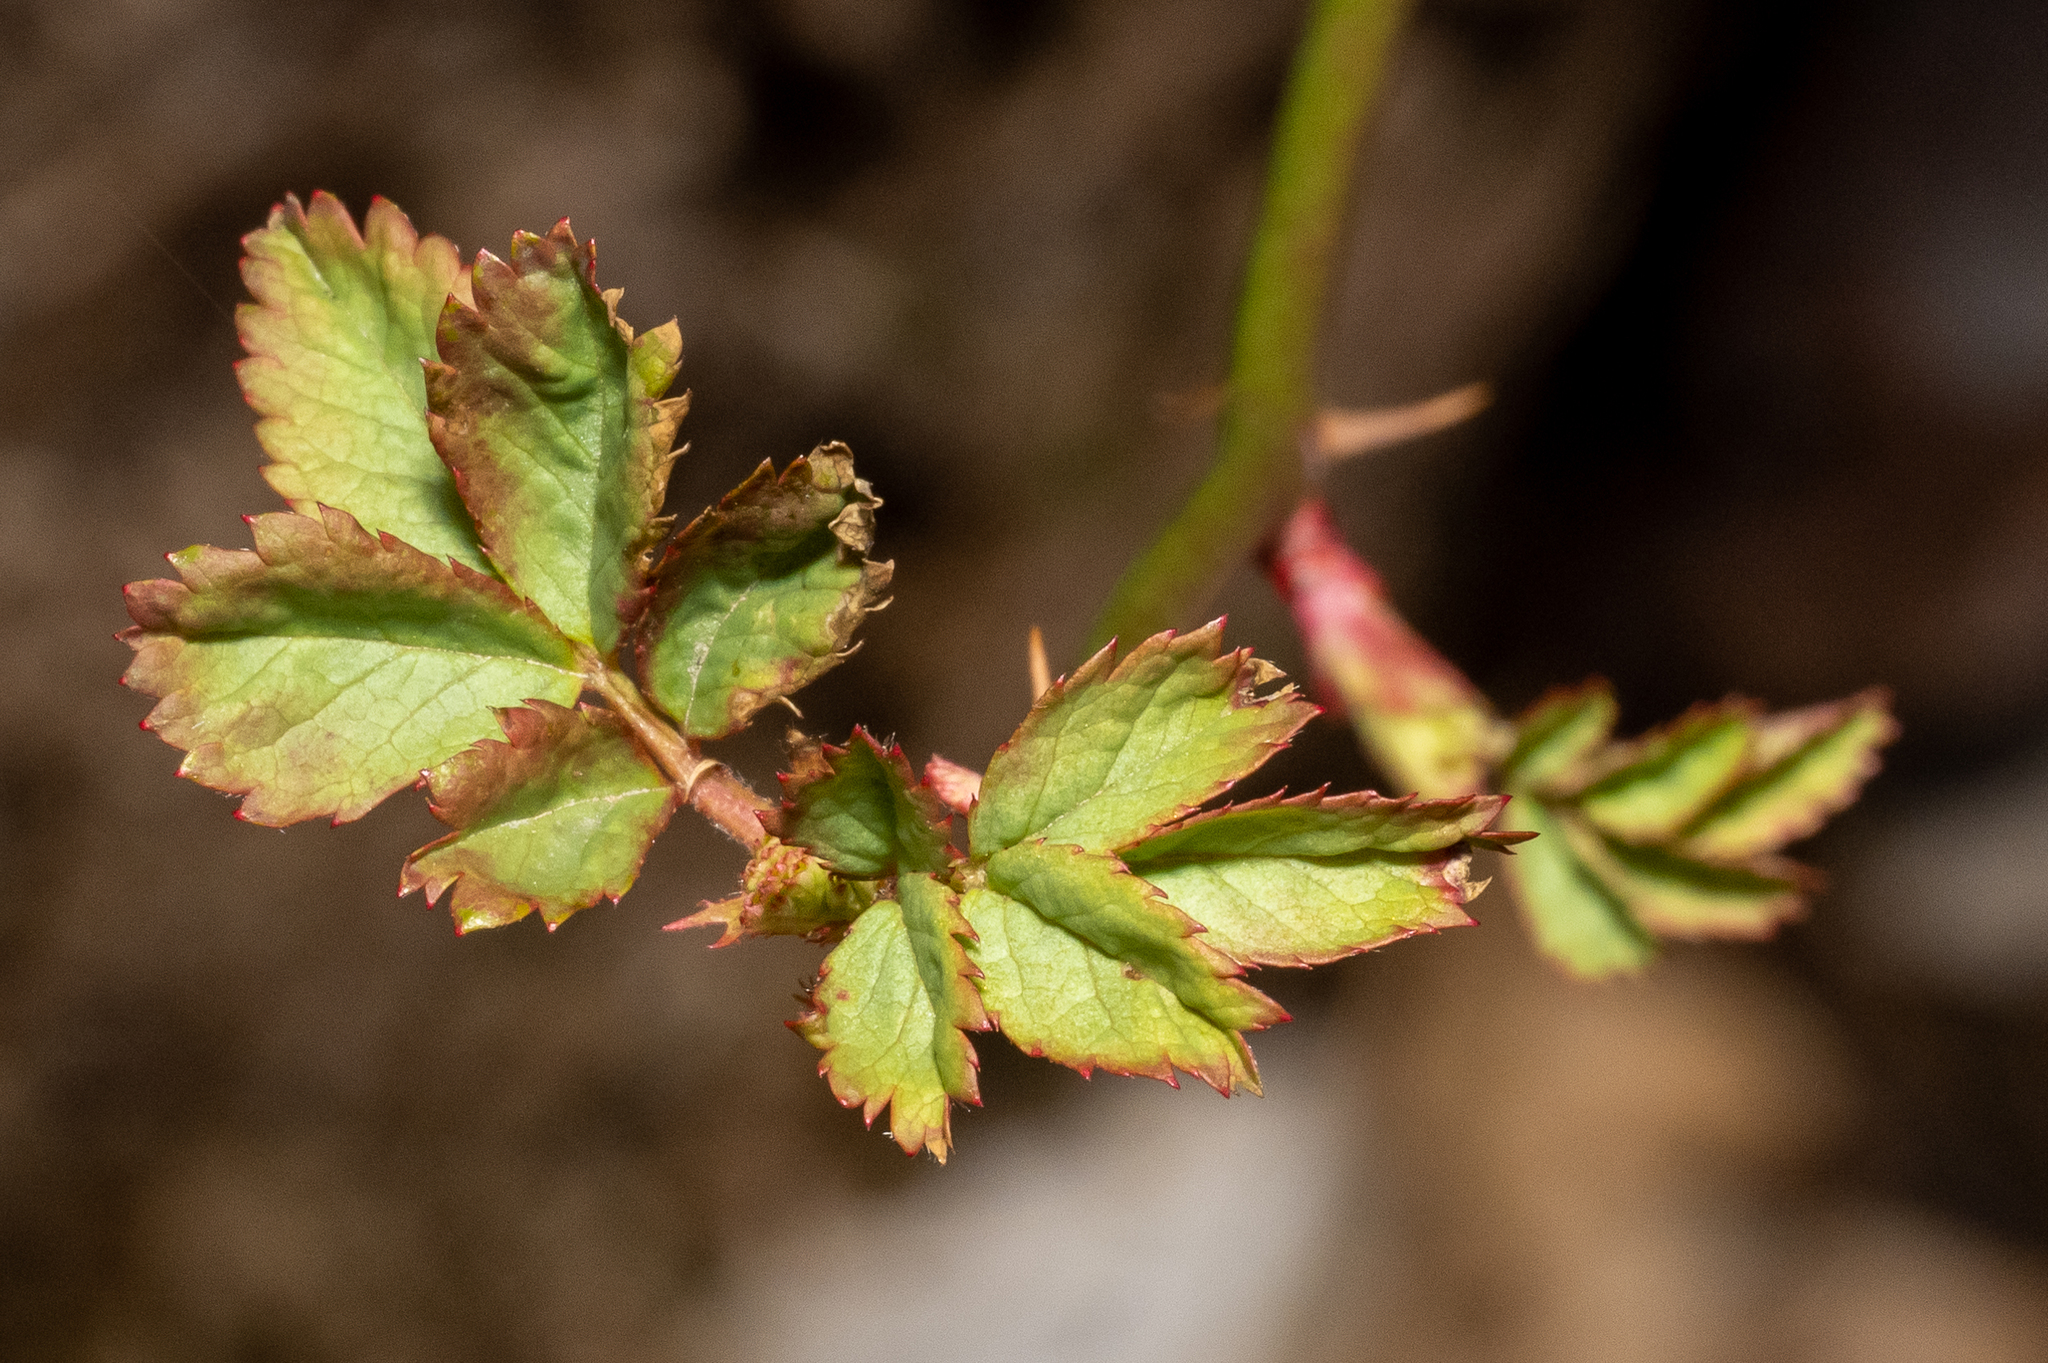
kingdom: Plantae
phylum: Tracheophyta
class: Magnoliopsida
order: Rosales
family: Rosaceae
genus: Rosa
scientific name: Rosa multiflora
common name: Multiflora rose
